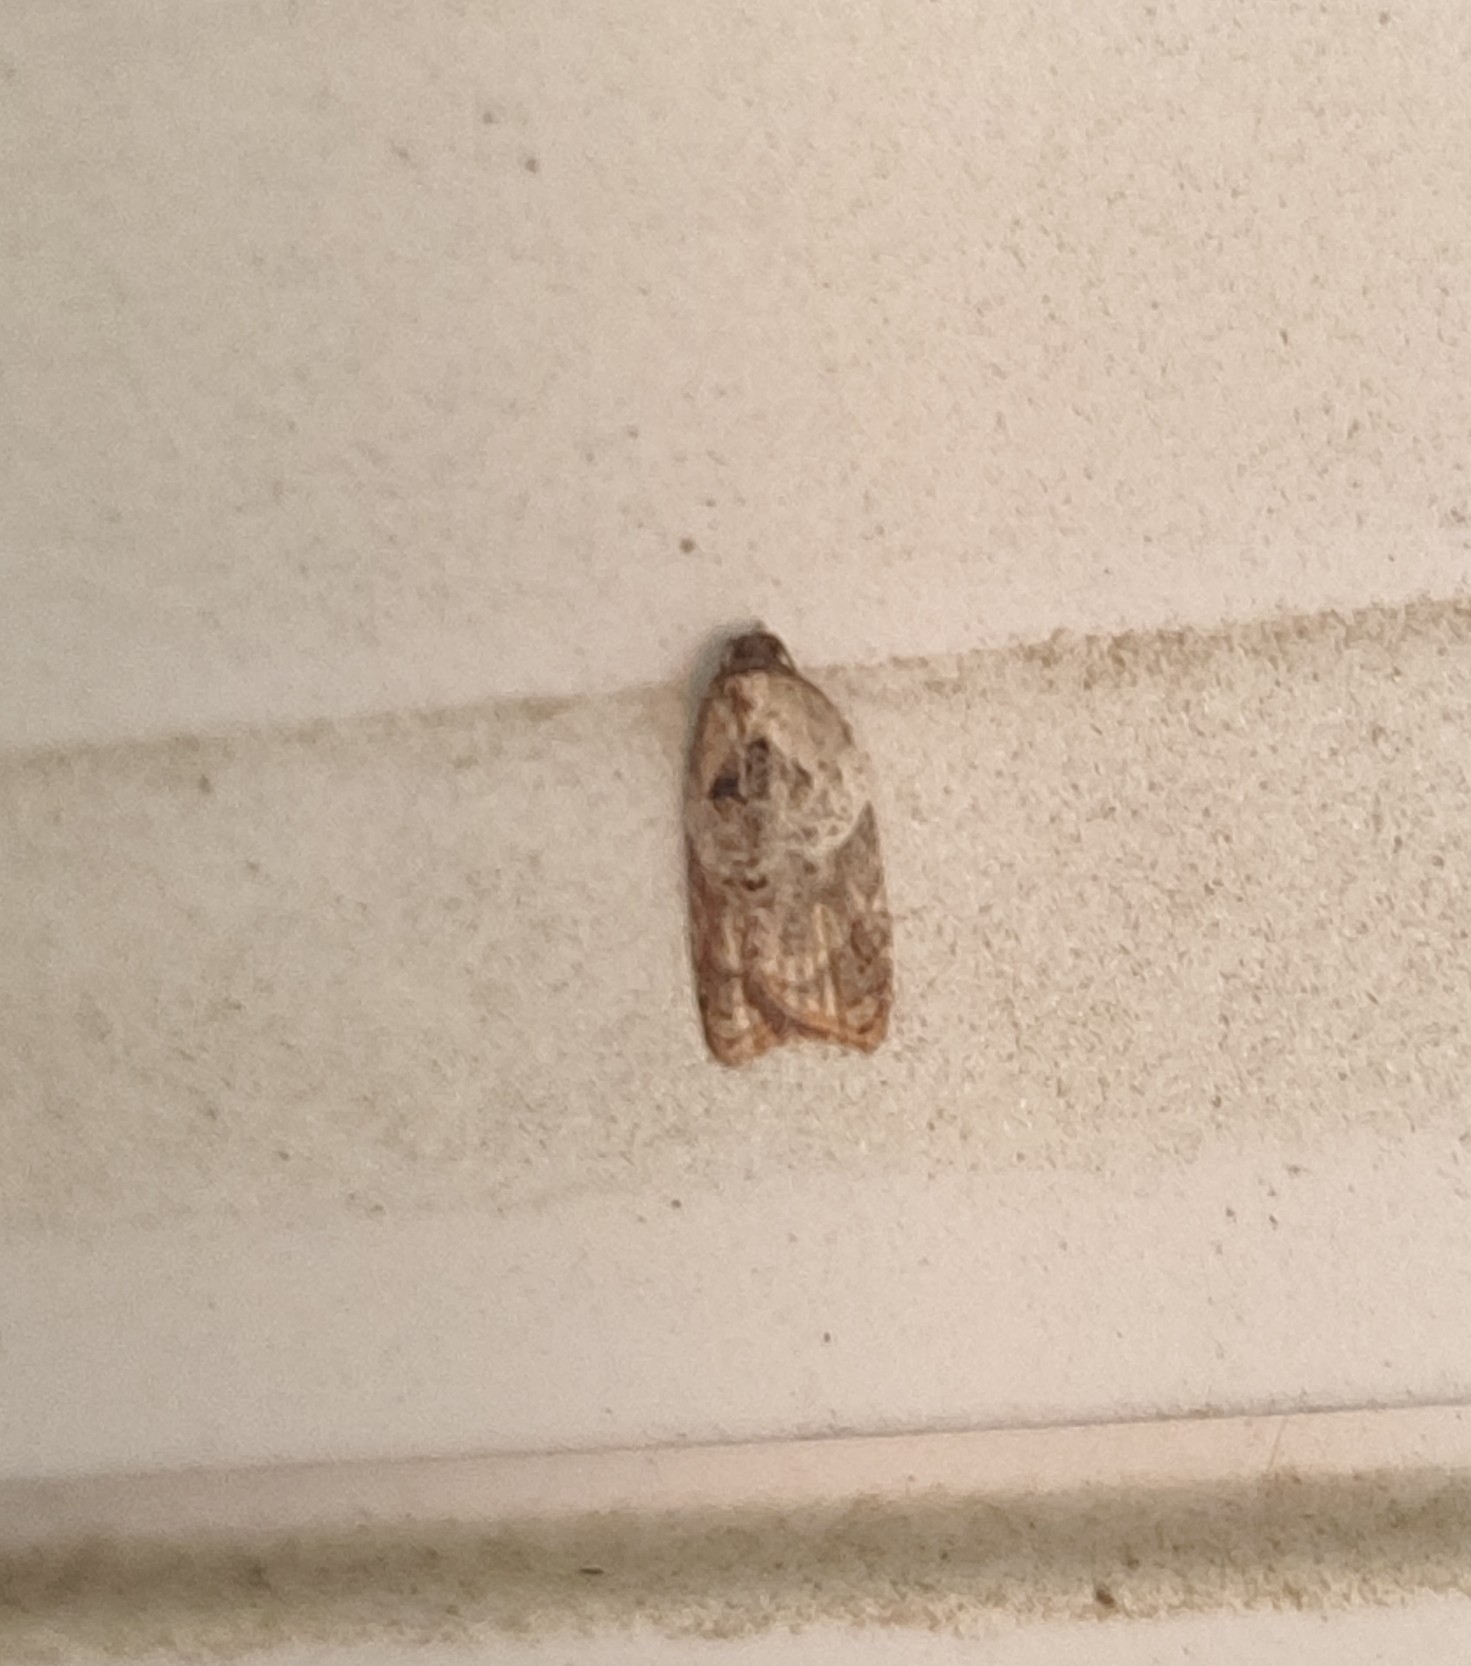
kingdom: Animalia
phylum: Arthropoda
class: Insecta
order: Lepidoptera
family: Tortricidae
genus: Acleris
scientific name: Acleris variegana
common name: Garden rose tortrix
